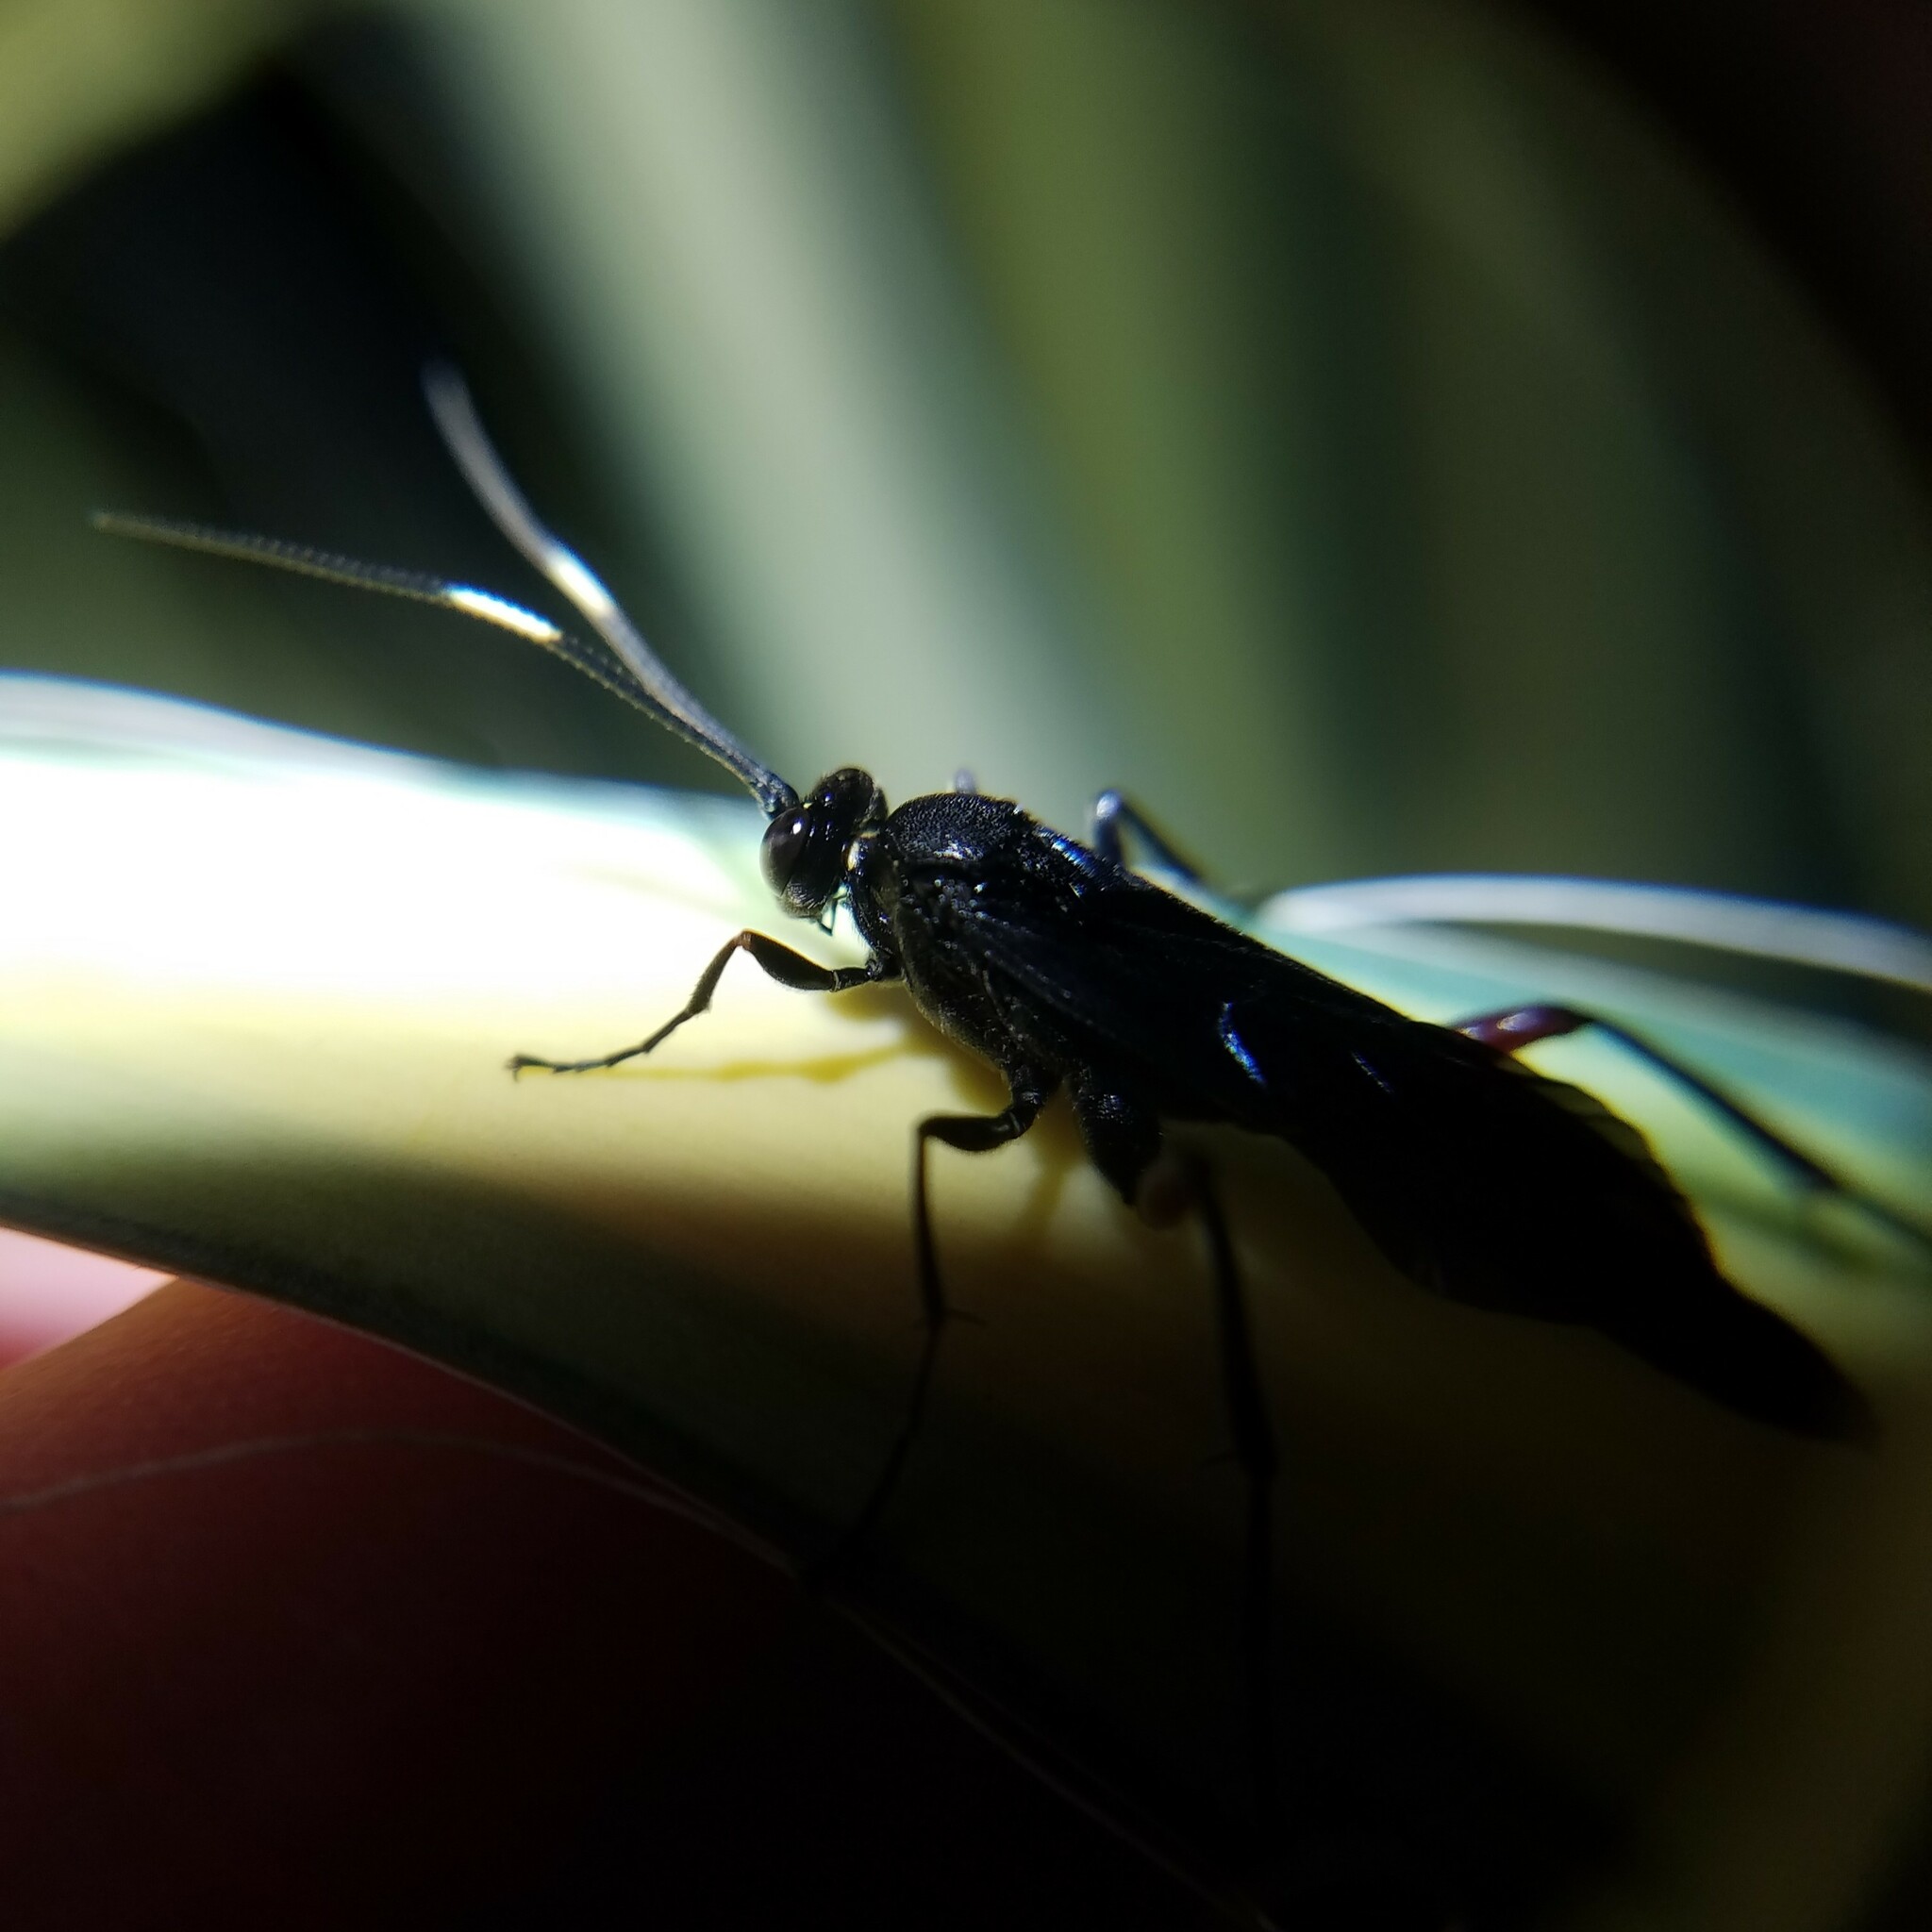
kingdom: Animalia
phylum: Arthropoda
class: Insecta
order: Hymenoptera
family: Ichneumonidae
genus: Limonethe
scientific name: Limonethe maurator
